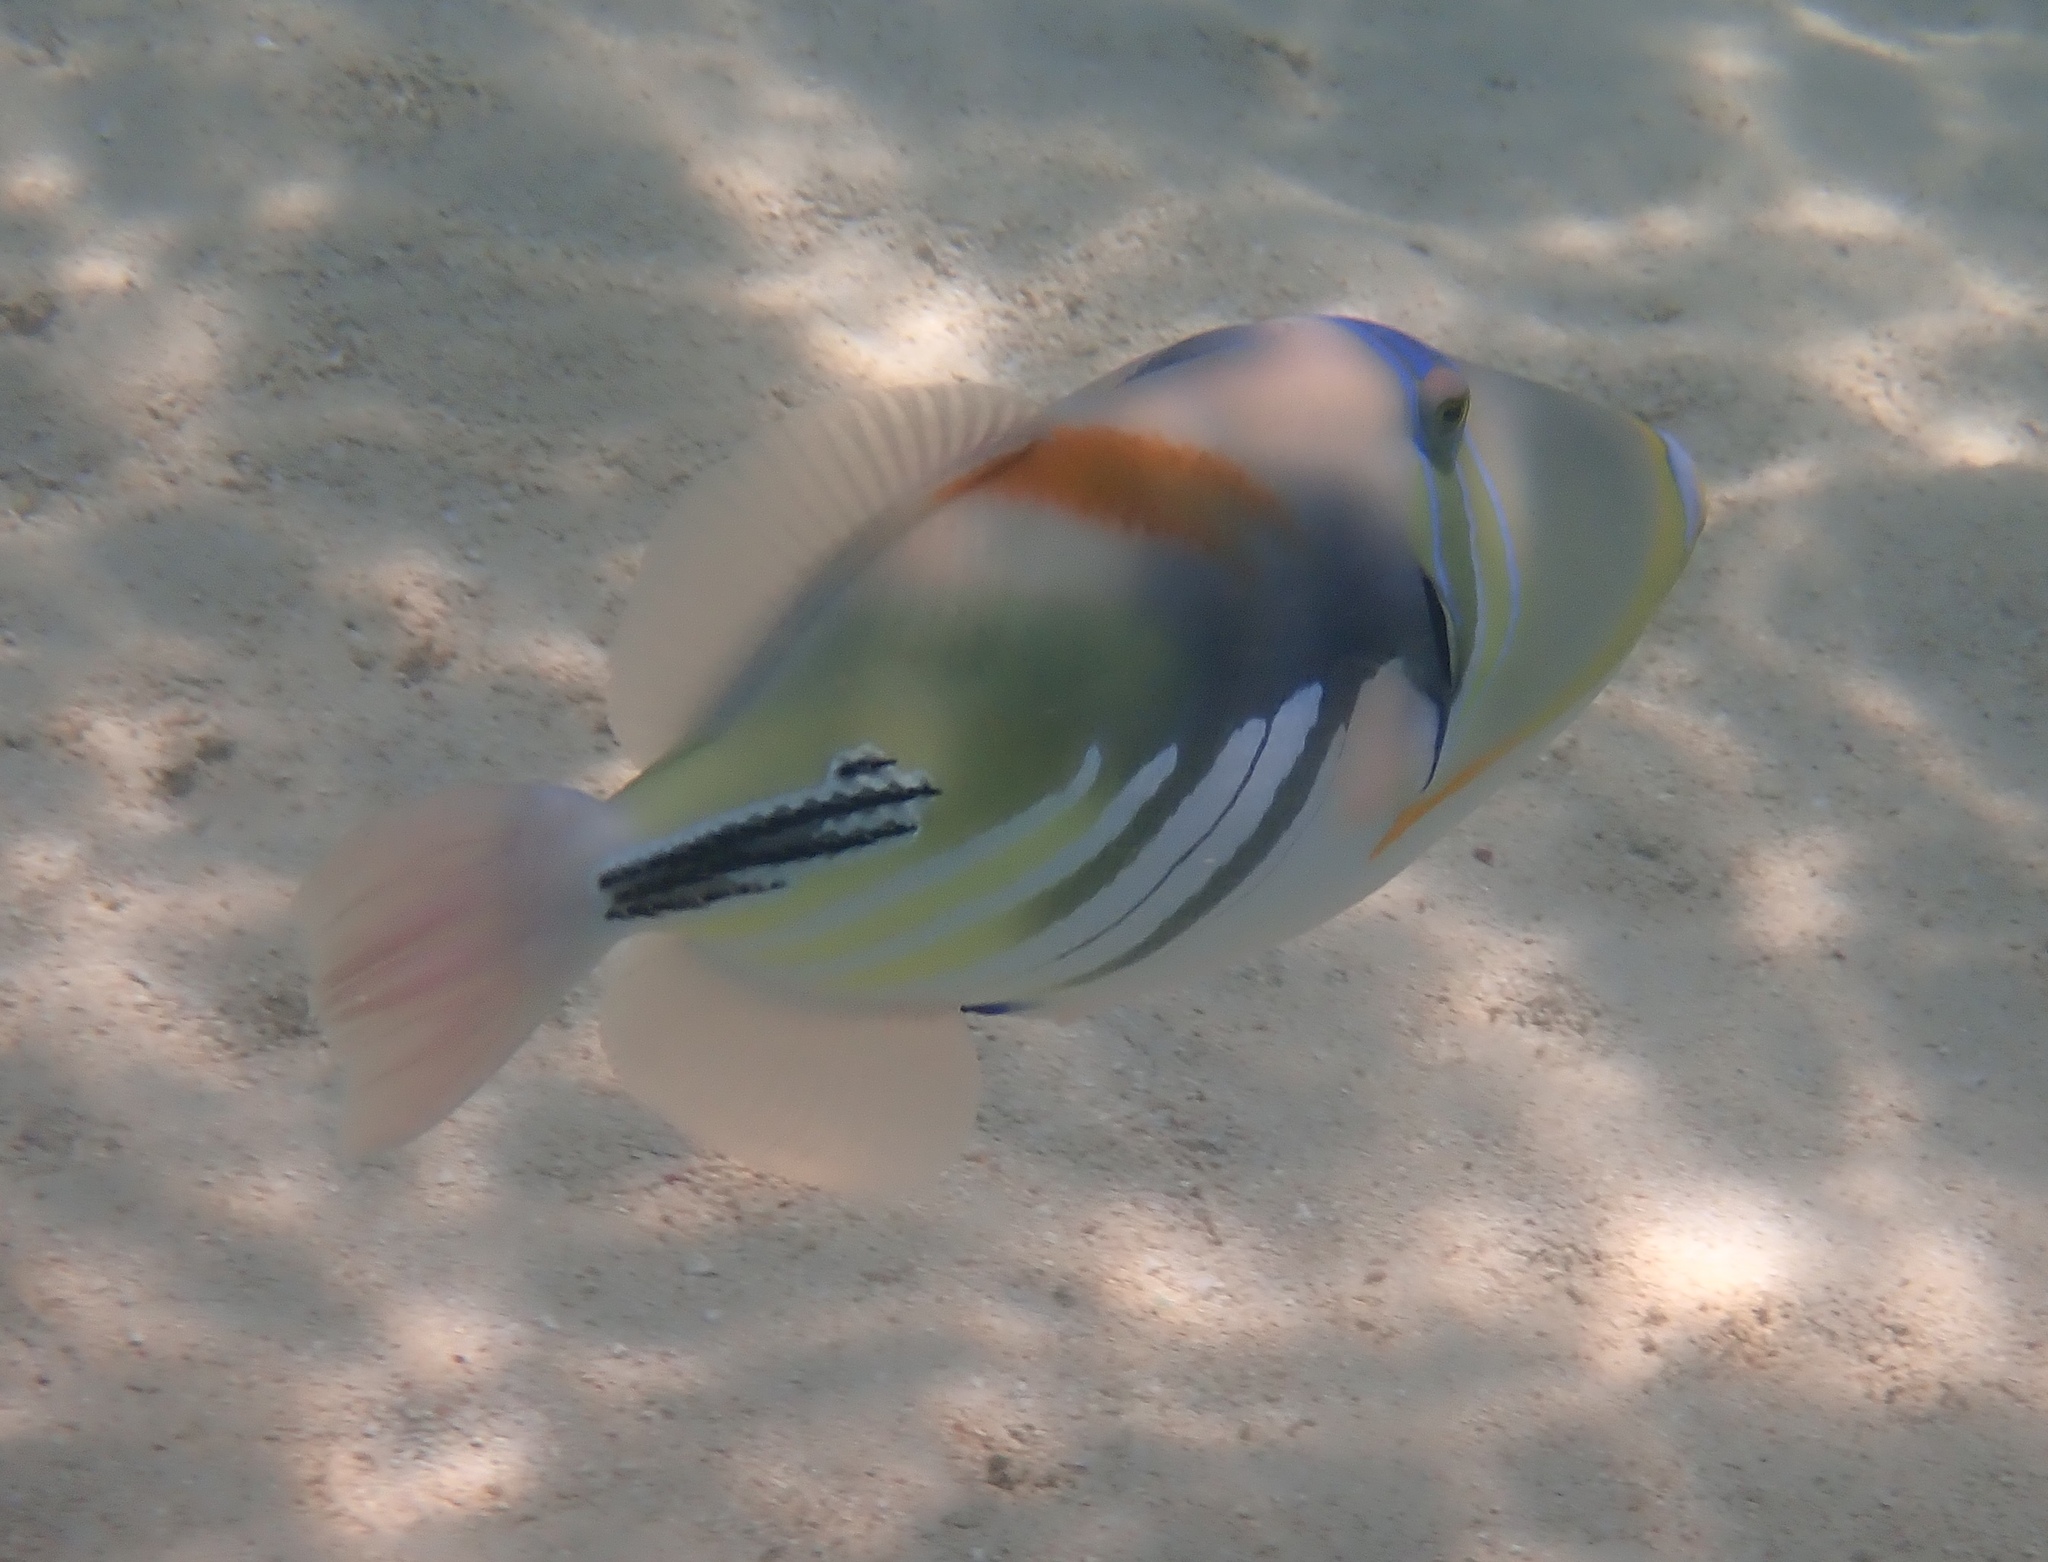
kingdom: Animalia
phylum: Chordata
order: Tetraodontiformes
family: Balistidae
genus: Rhinecanthus
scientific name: Rhinecanthus aculeatus
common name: White-banded triggerfish
